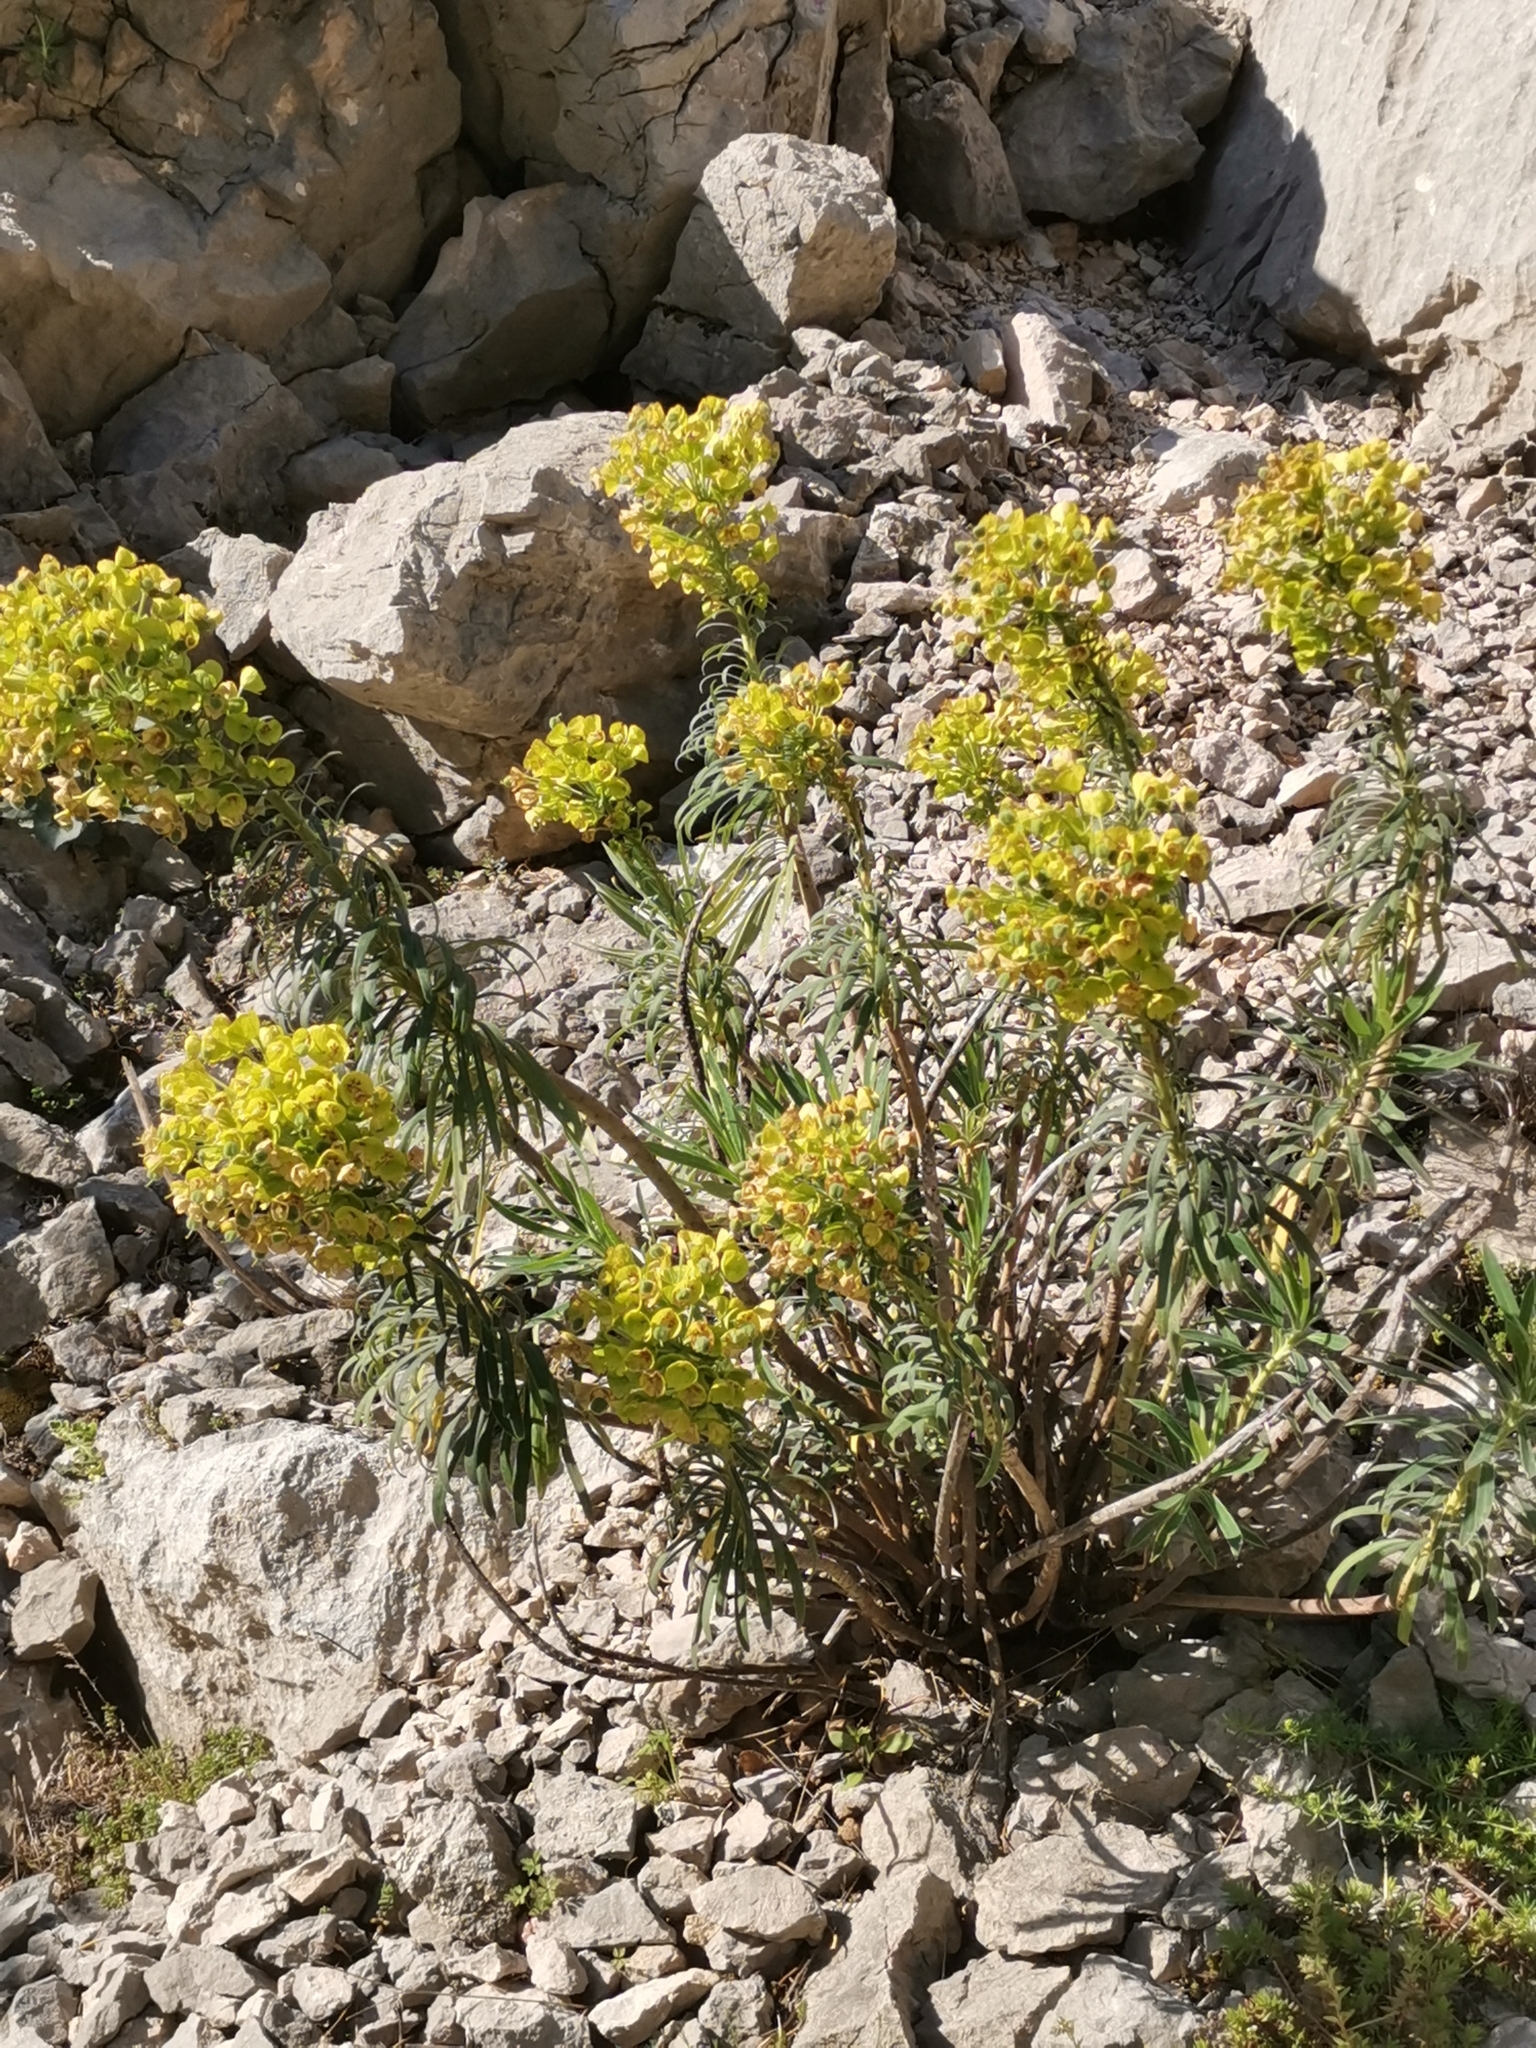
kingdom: Plantae
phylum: Tracheophyta
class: Magnoliopsida
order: Malpighiales
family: Euphorbiaceae
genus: Euphorbia
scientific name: Euphorbia characias
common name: Mediterranean spurge
